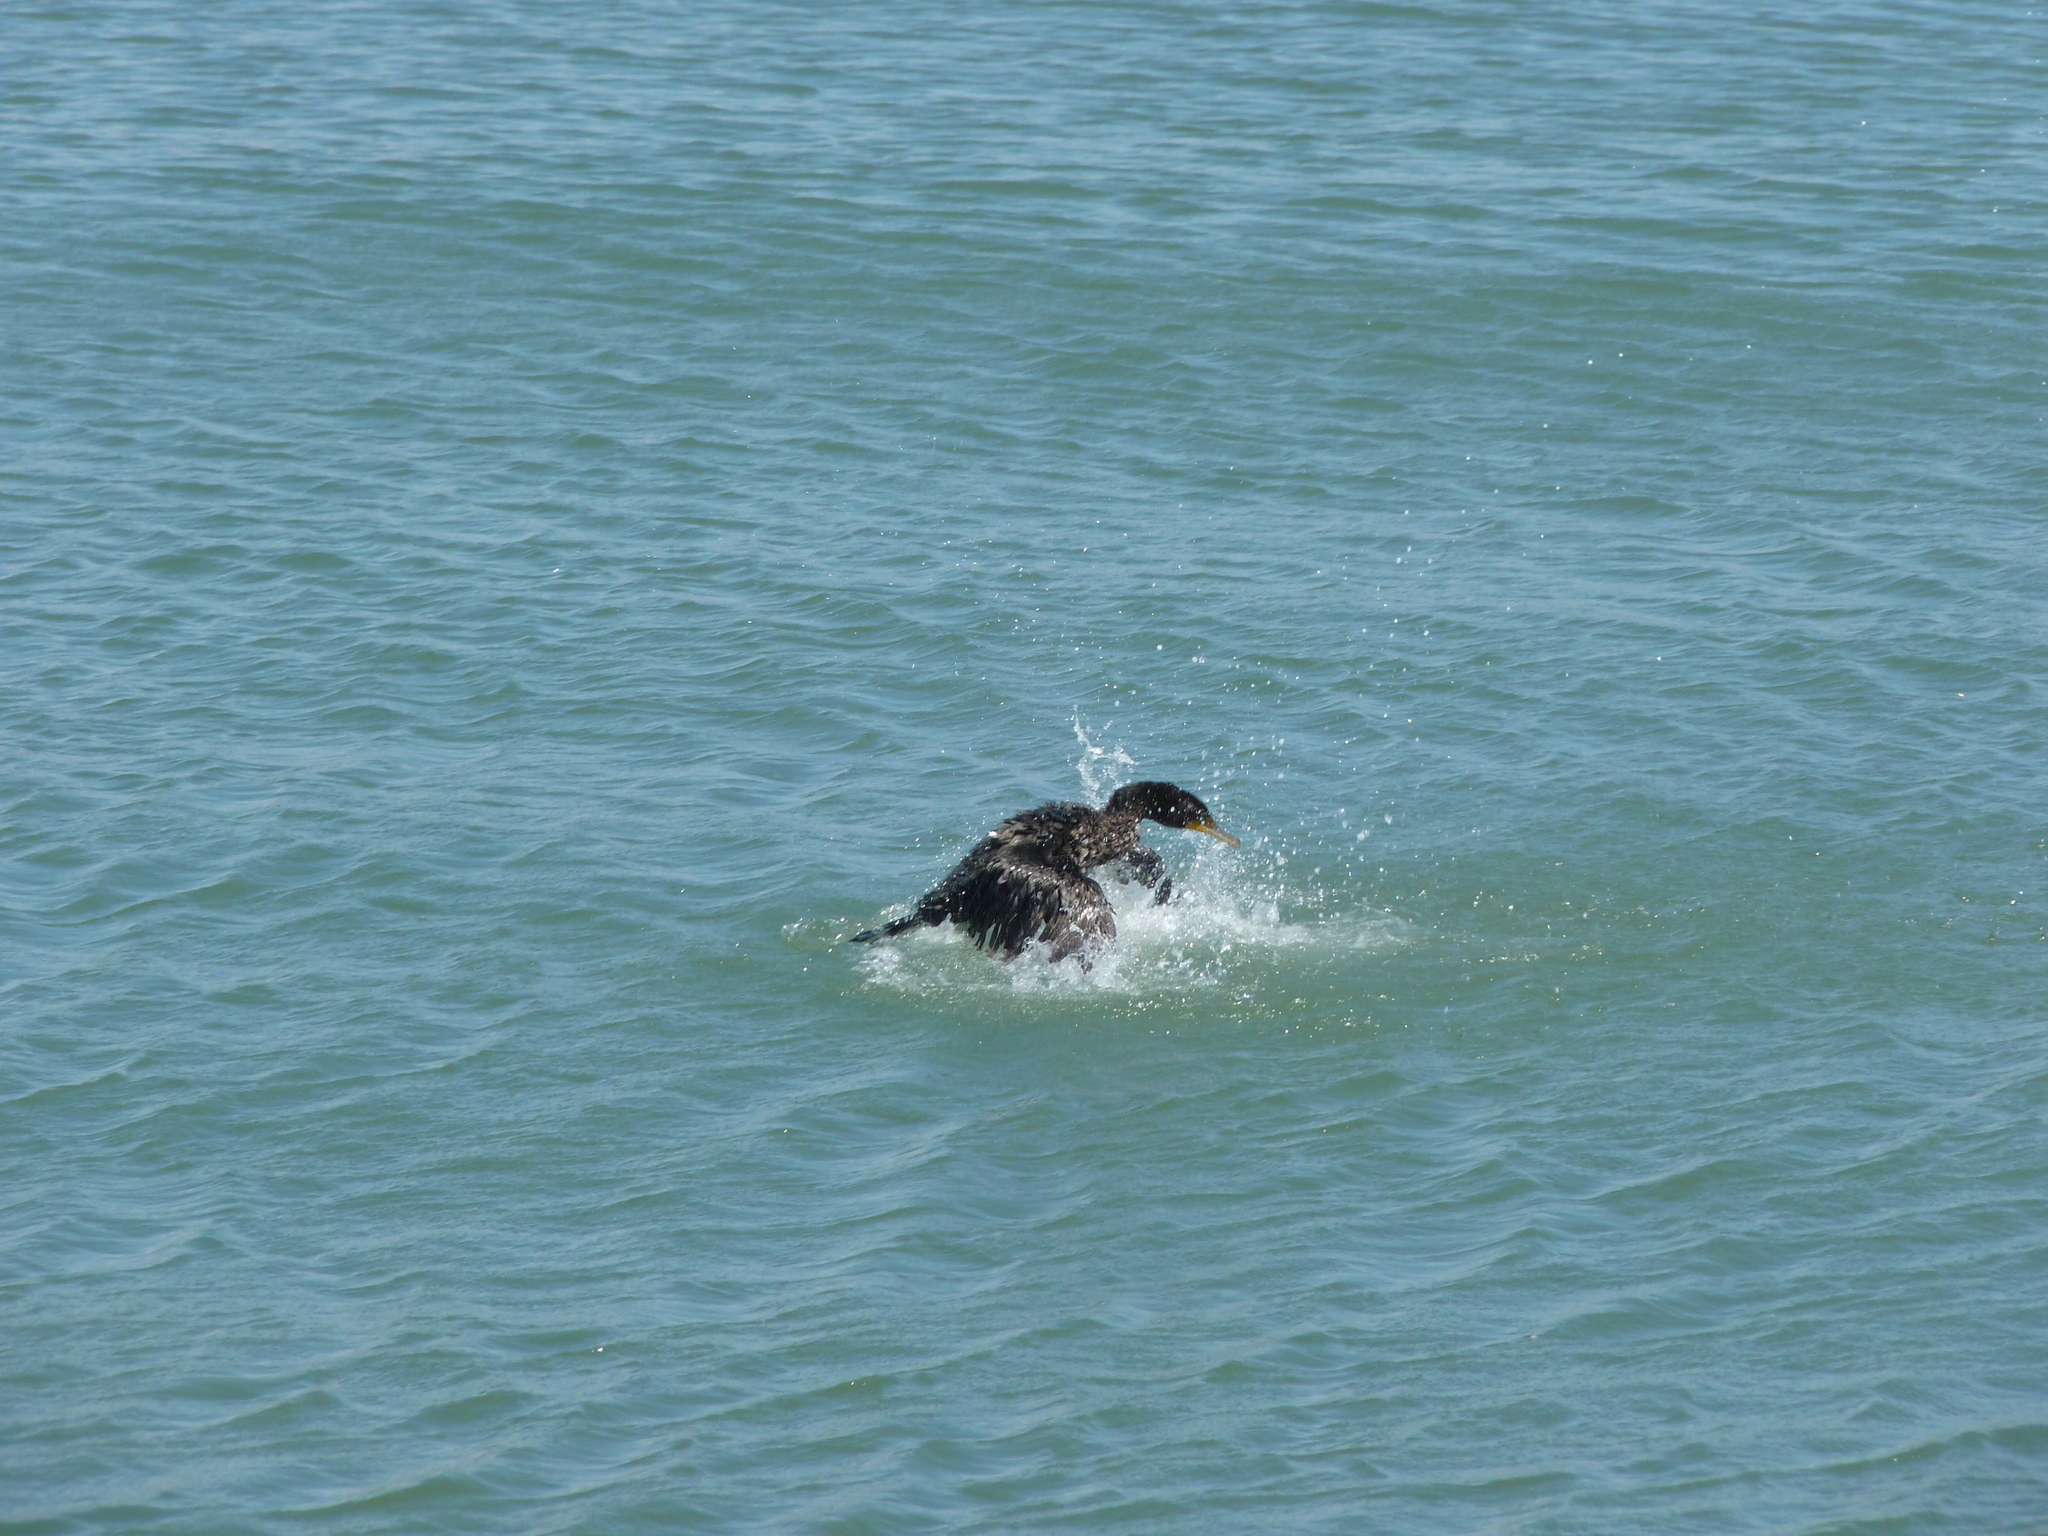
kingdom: Animalia
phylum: Chordata
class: Aves
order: Suliformes
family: Phalacrocoracidae
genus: Phalacrocorax
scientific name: Phalacrocorax auritus
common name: Double-crested cormorant
